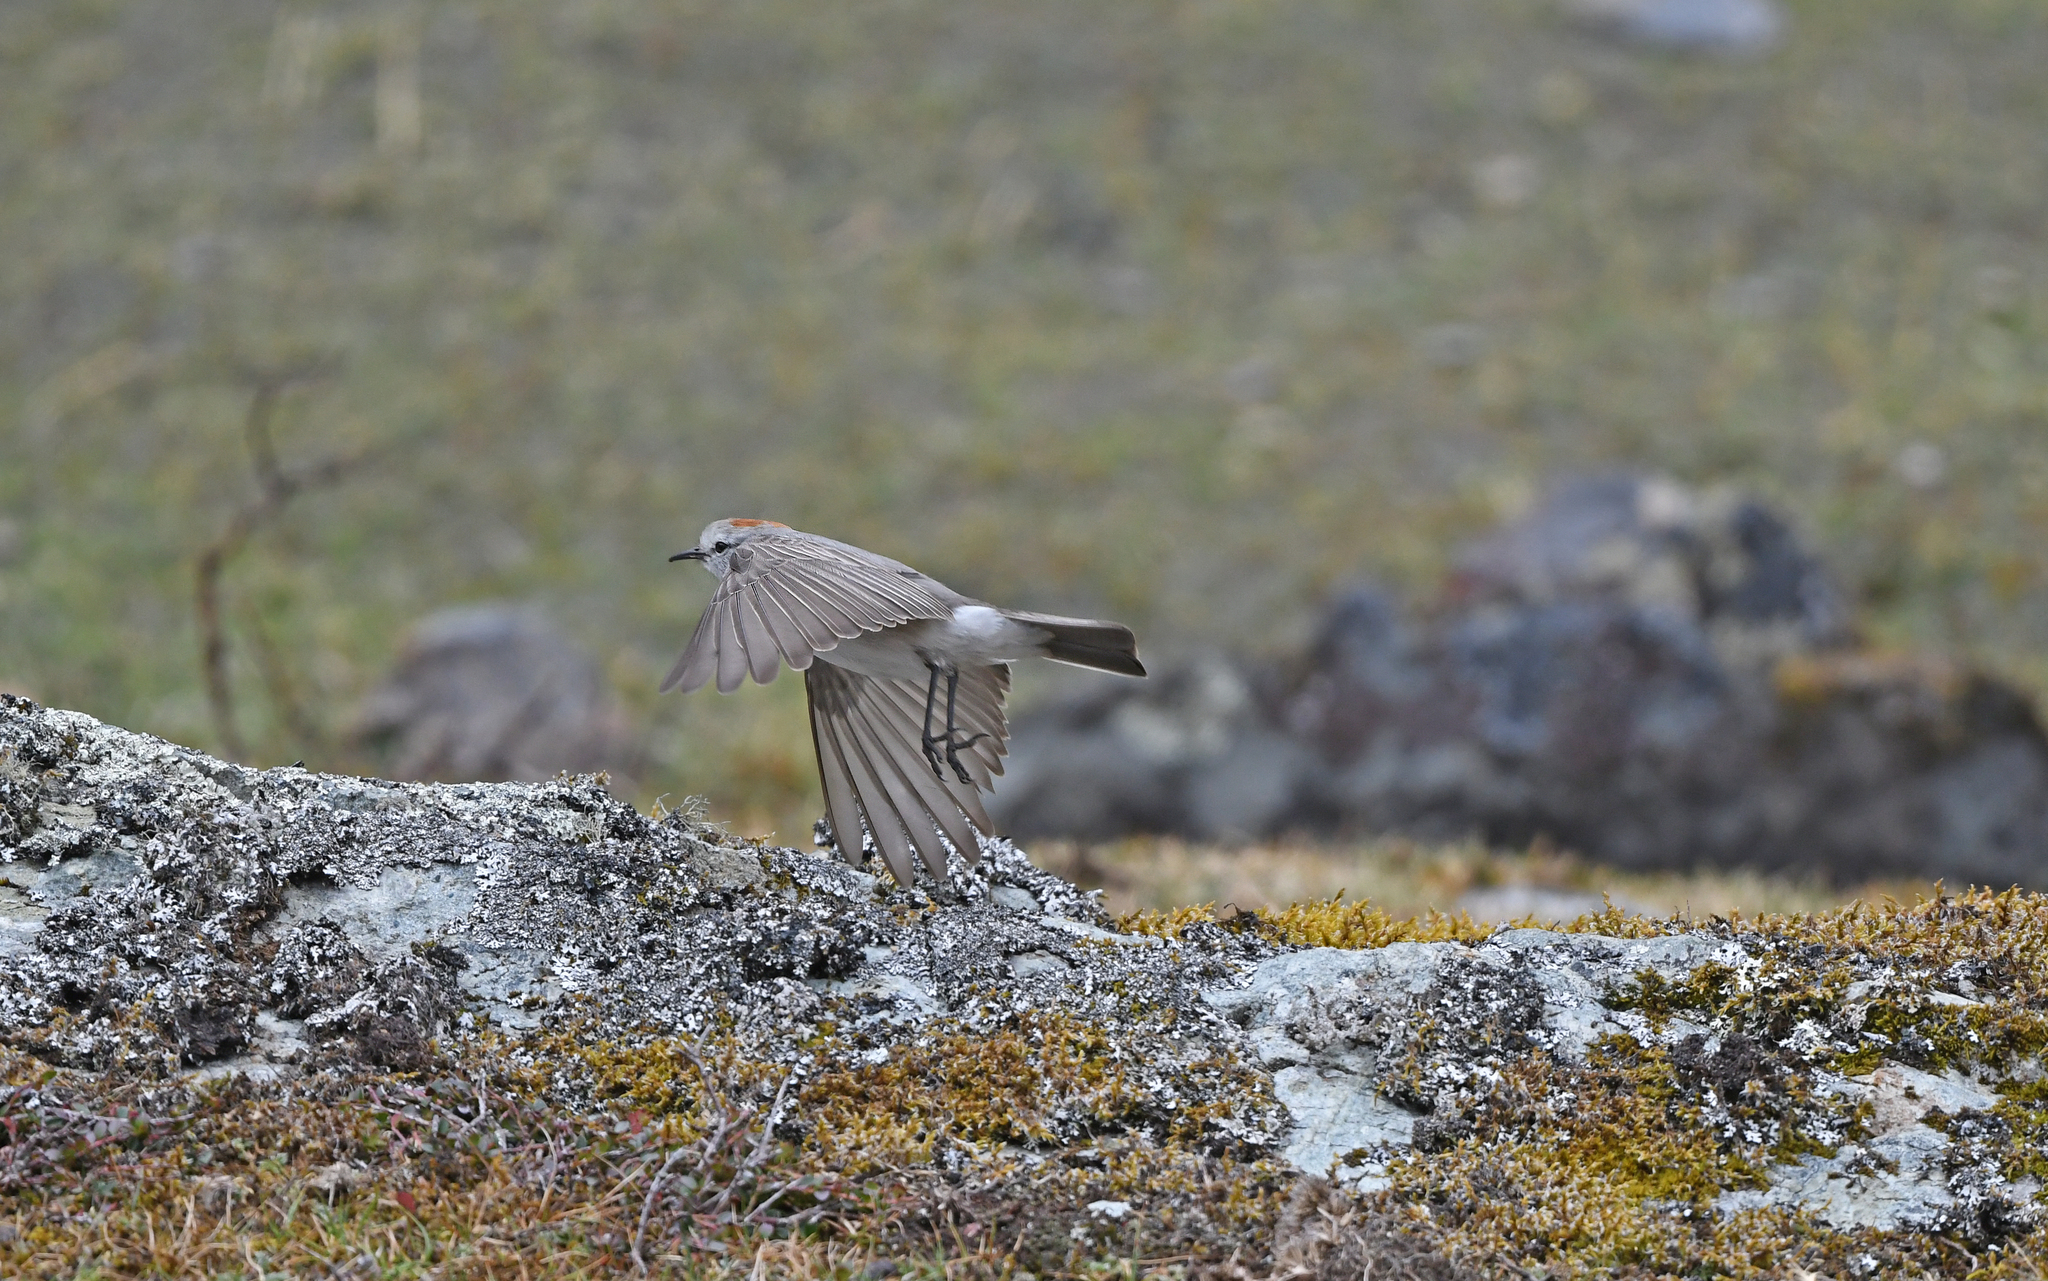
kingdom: Animalia
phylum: Chordata
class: Aves
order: Passeriformes
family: Tyrannidae
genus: Muscisaxicola
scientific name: Muscisaxicola rufivertex
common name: Rufous-naped ground tyrant
